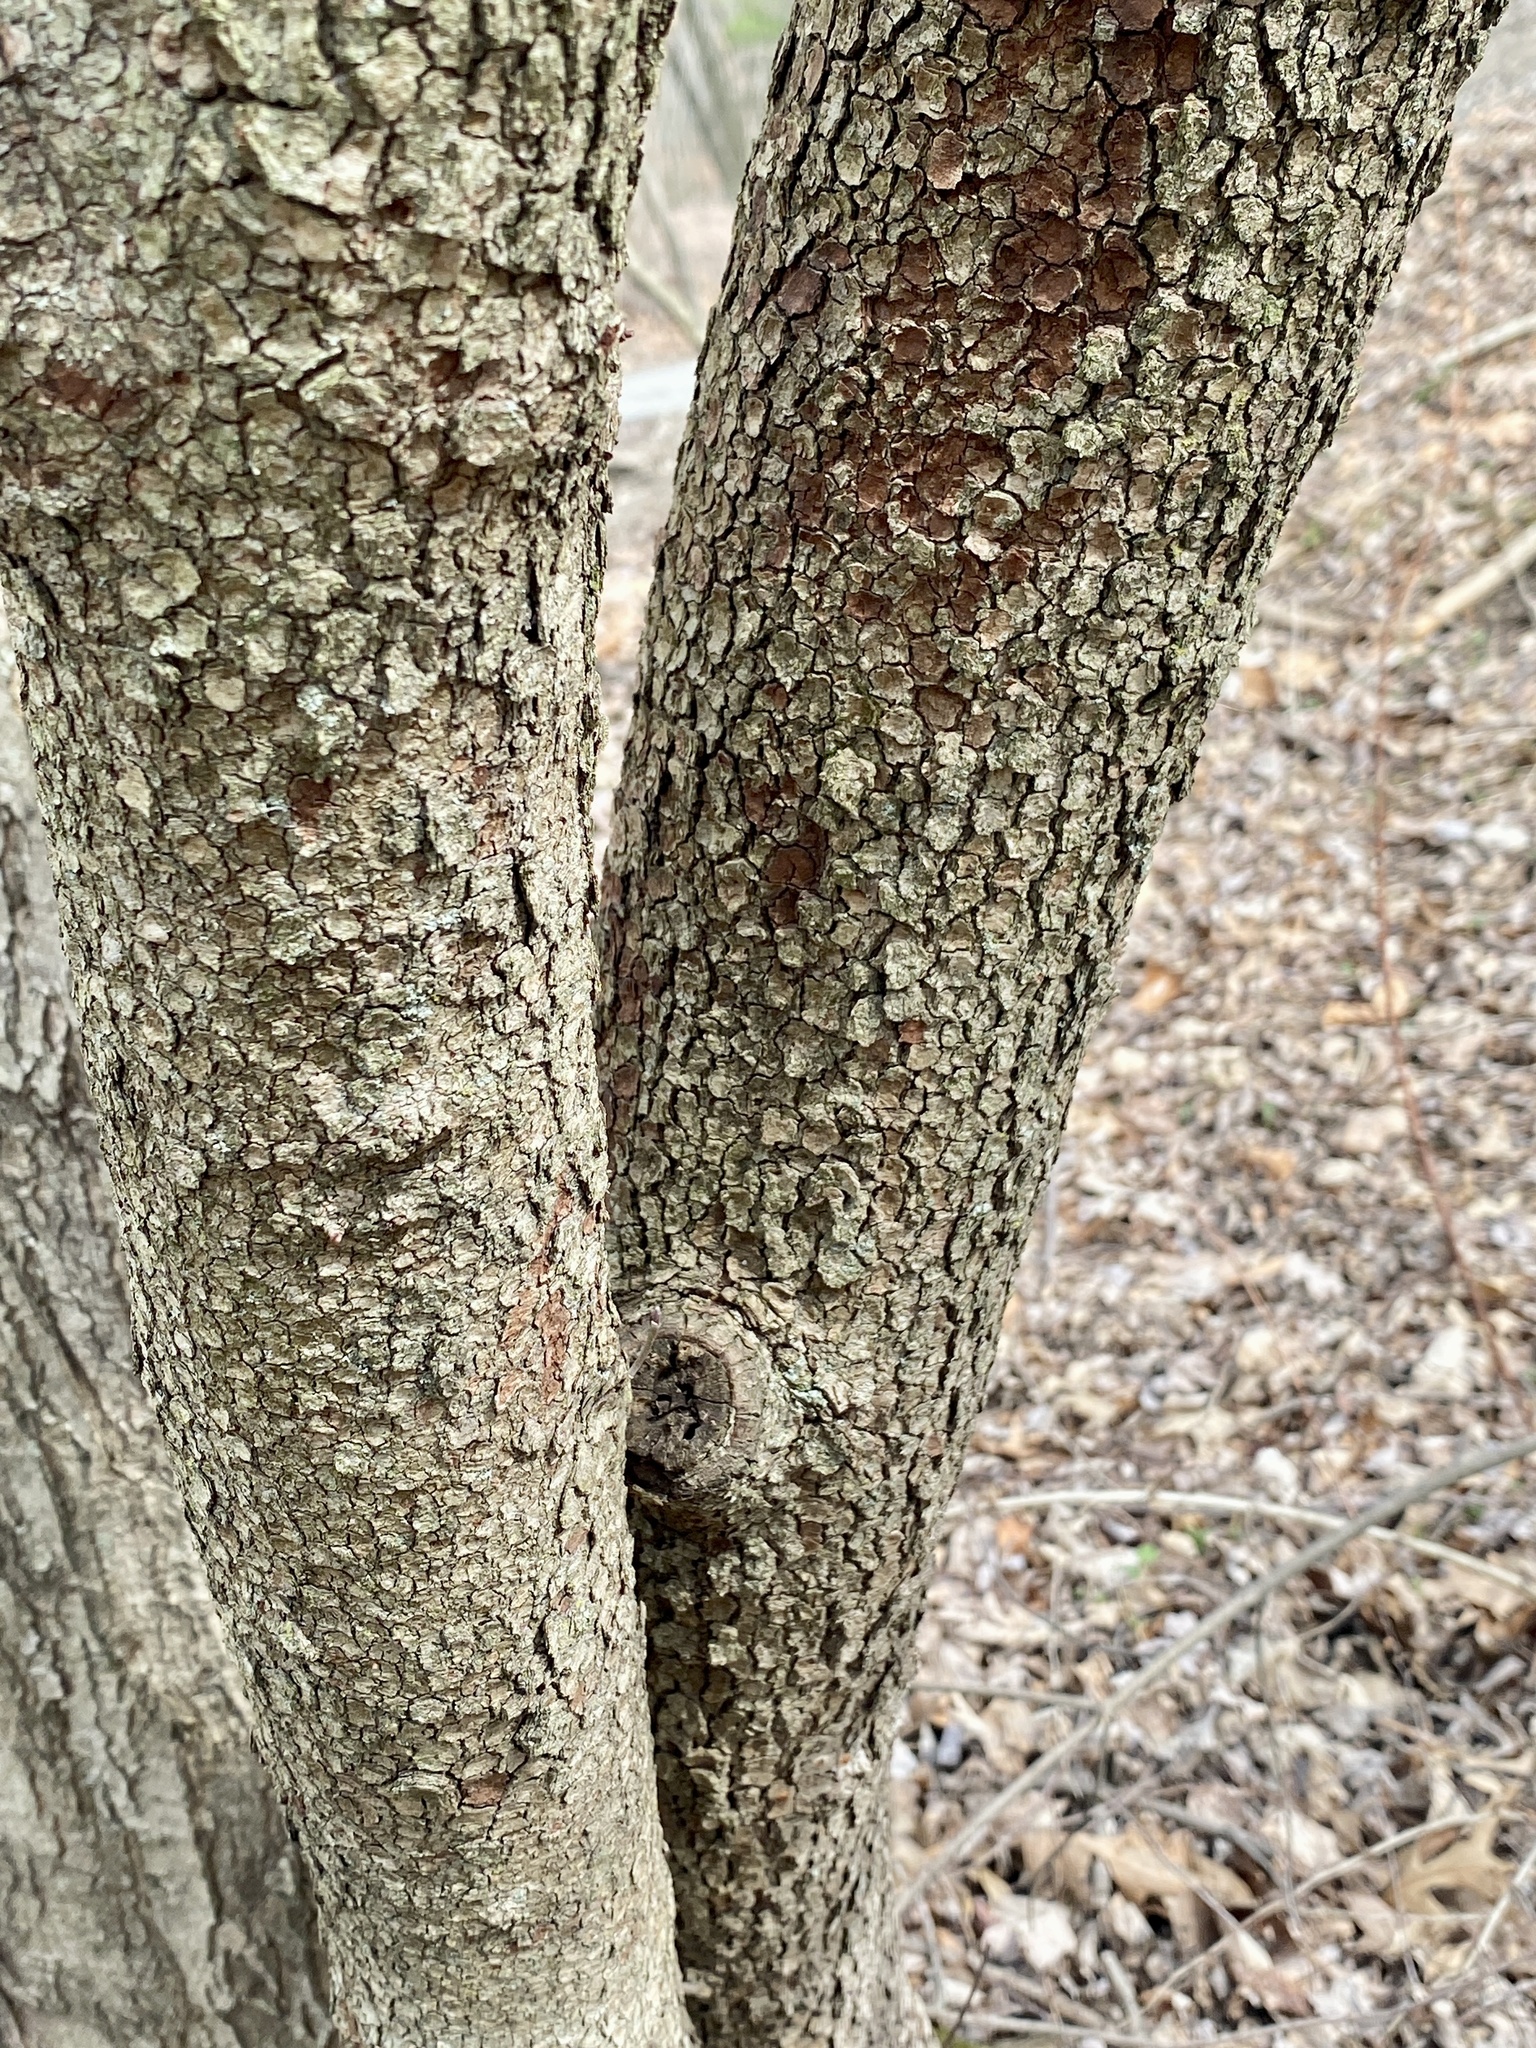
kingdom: Plantae
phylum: Tracheophyta
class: Magnoliopsida
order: Cornales
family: Cornaceae
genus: Cornus
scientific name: Cornus florida
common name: Flowering dogwood
